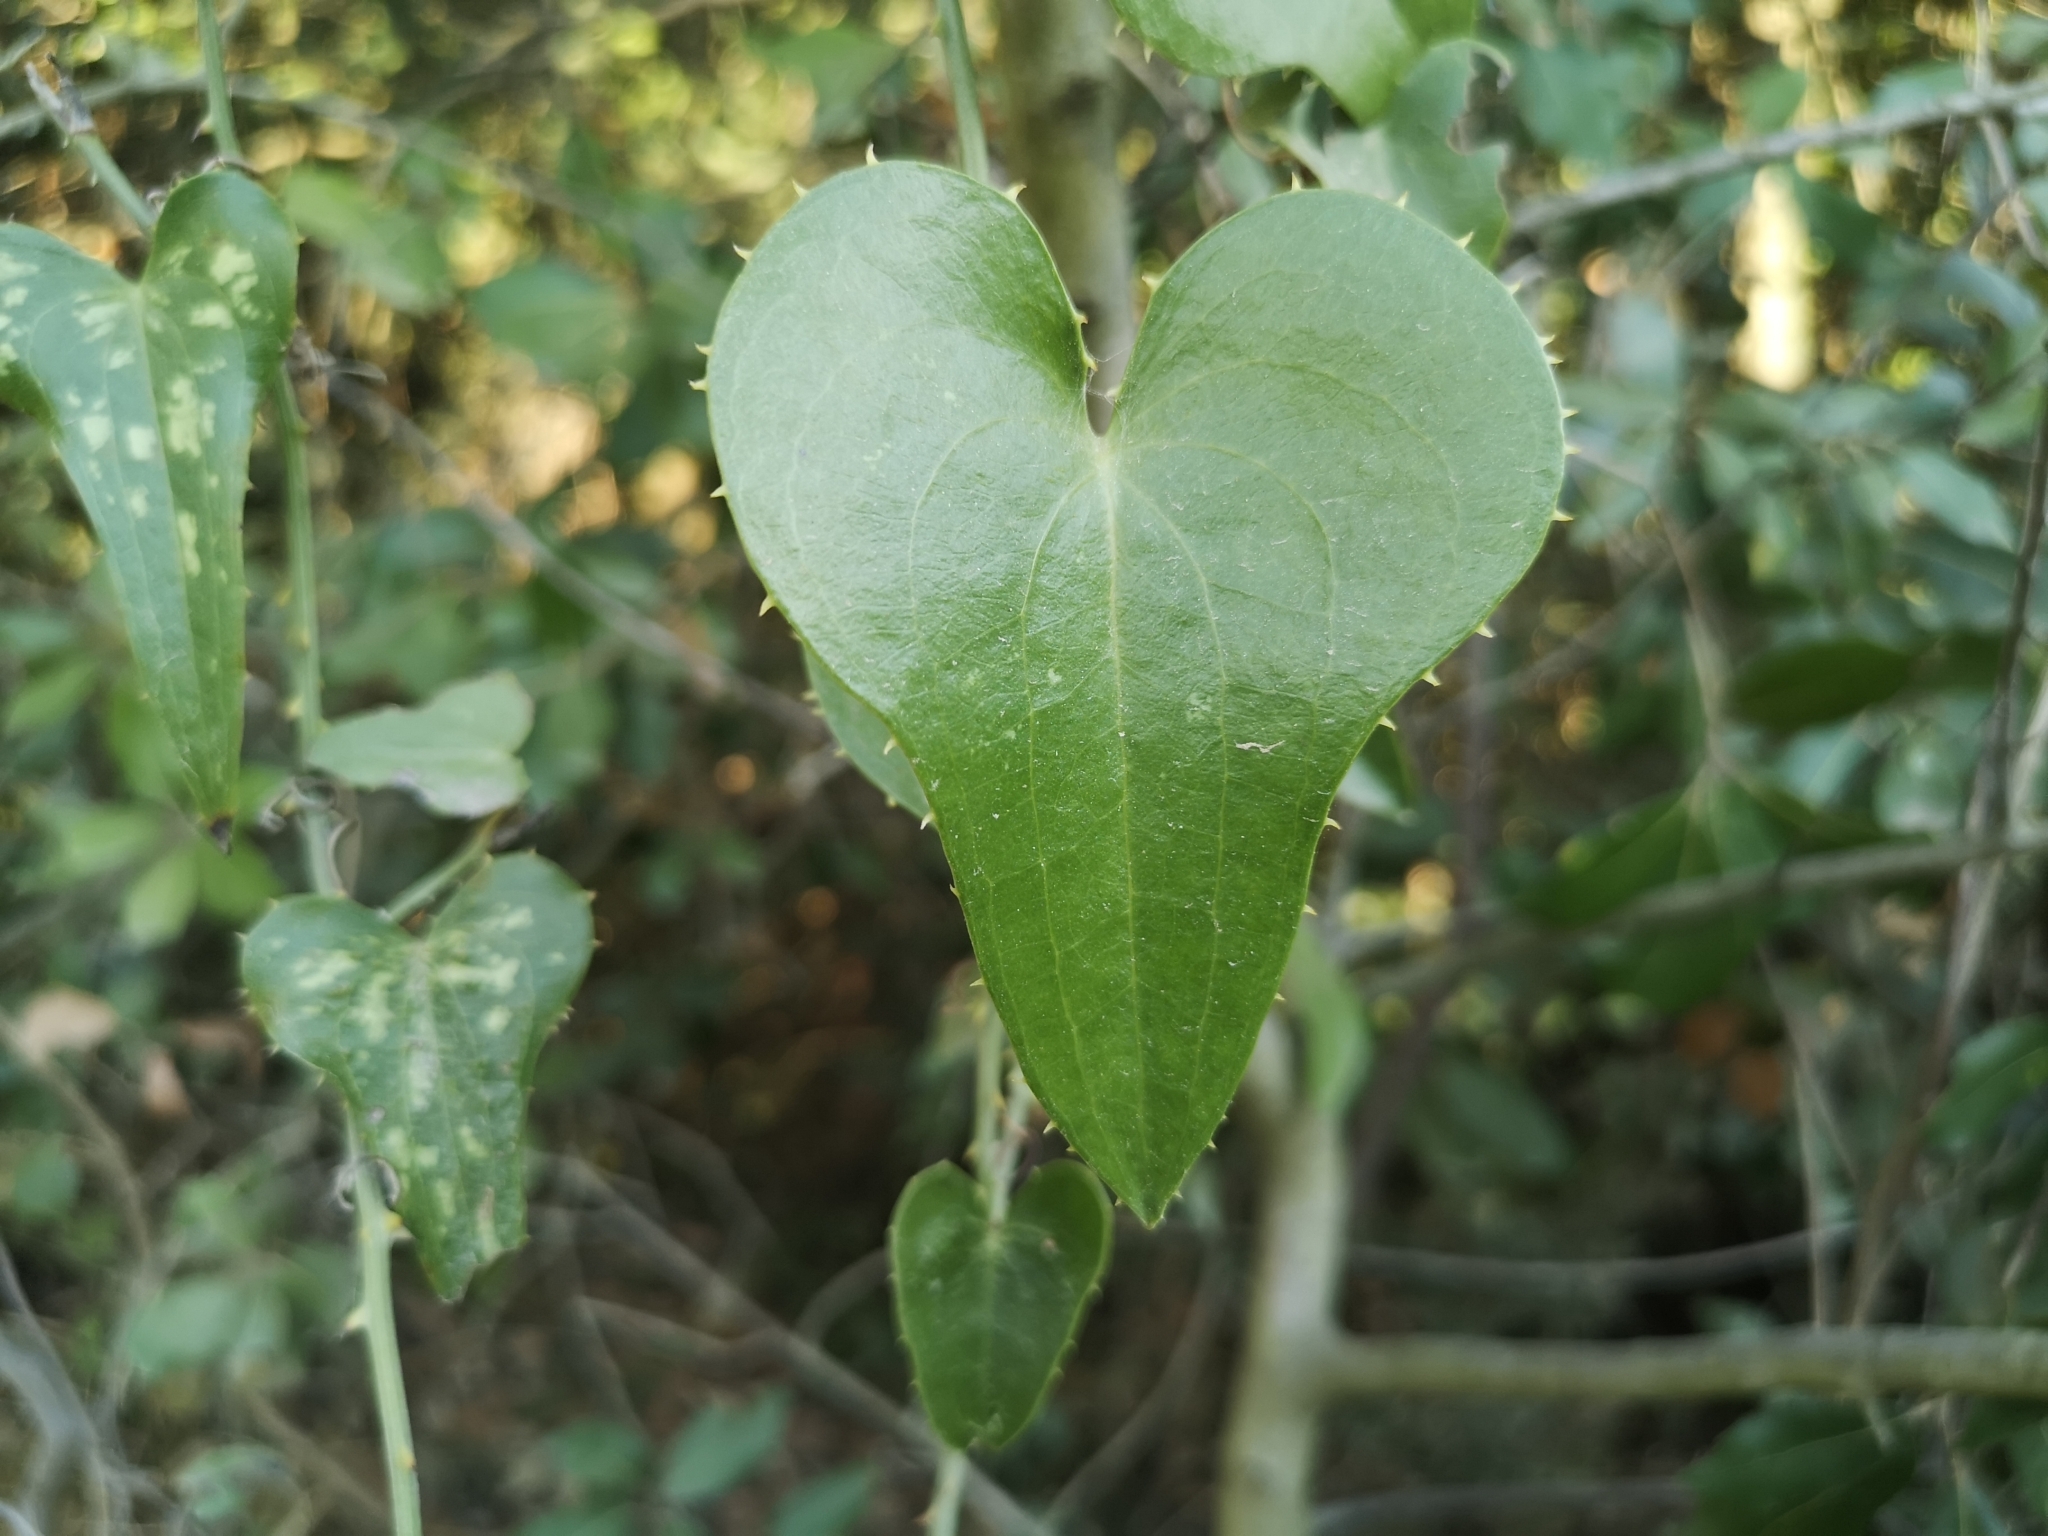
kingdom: Plantae
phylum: Tracheophyta
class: Liliopsida
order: Liliales
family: Smilacaceae
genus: Smilax
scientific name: Smilax aspera
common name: Common smilax
